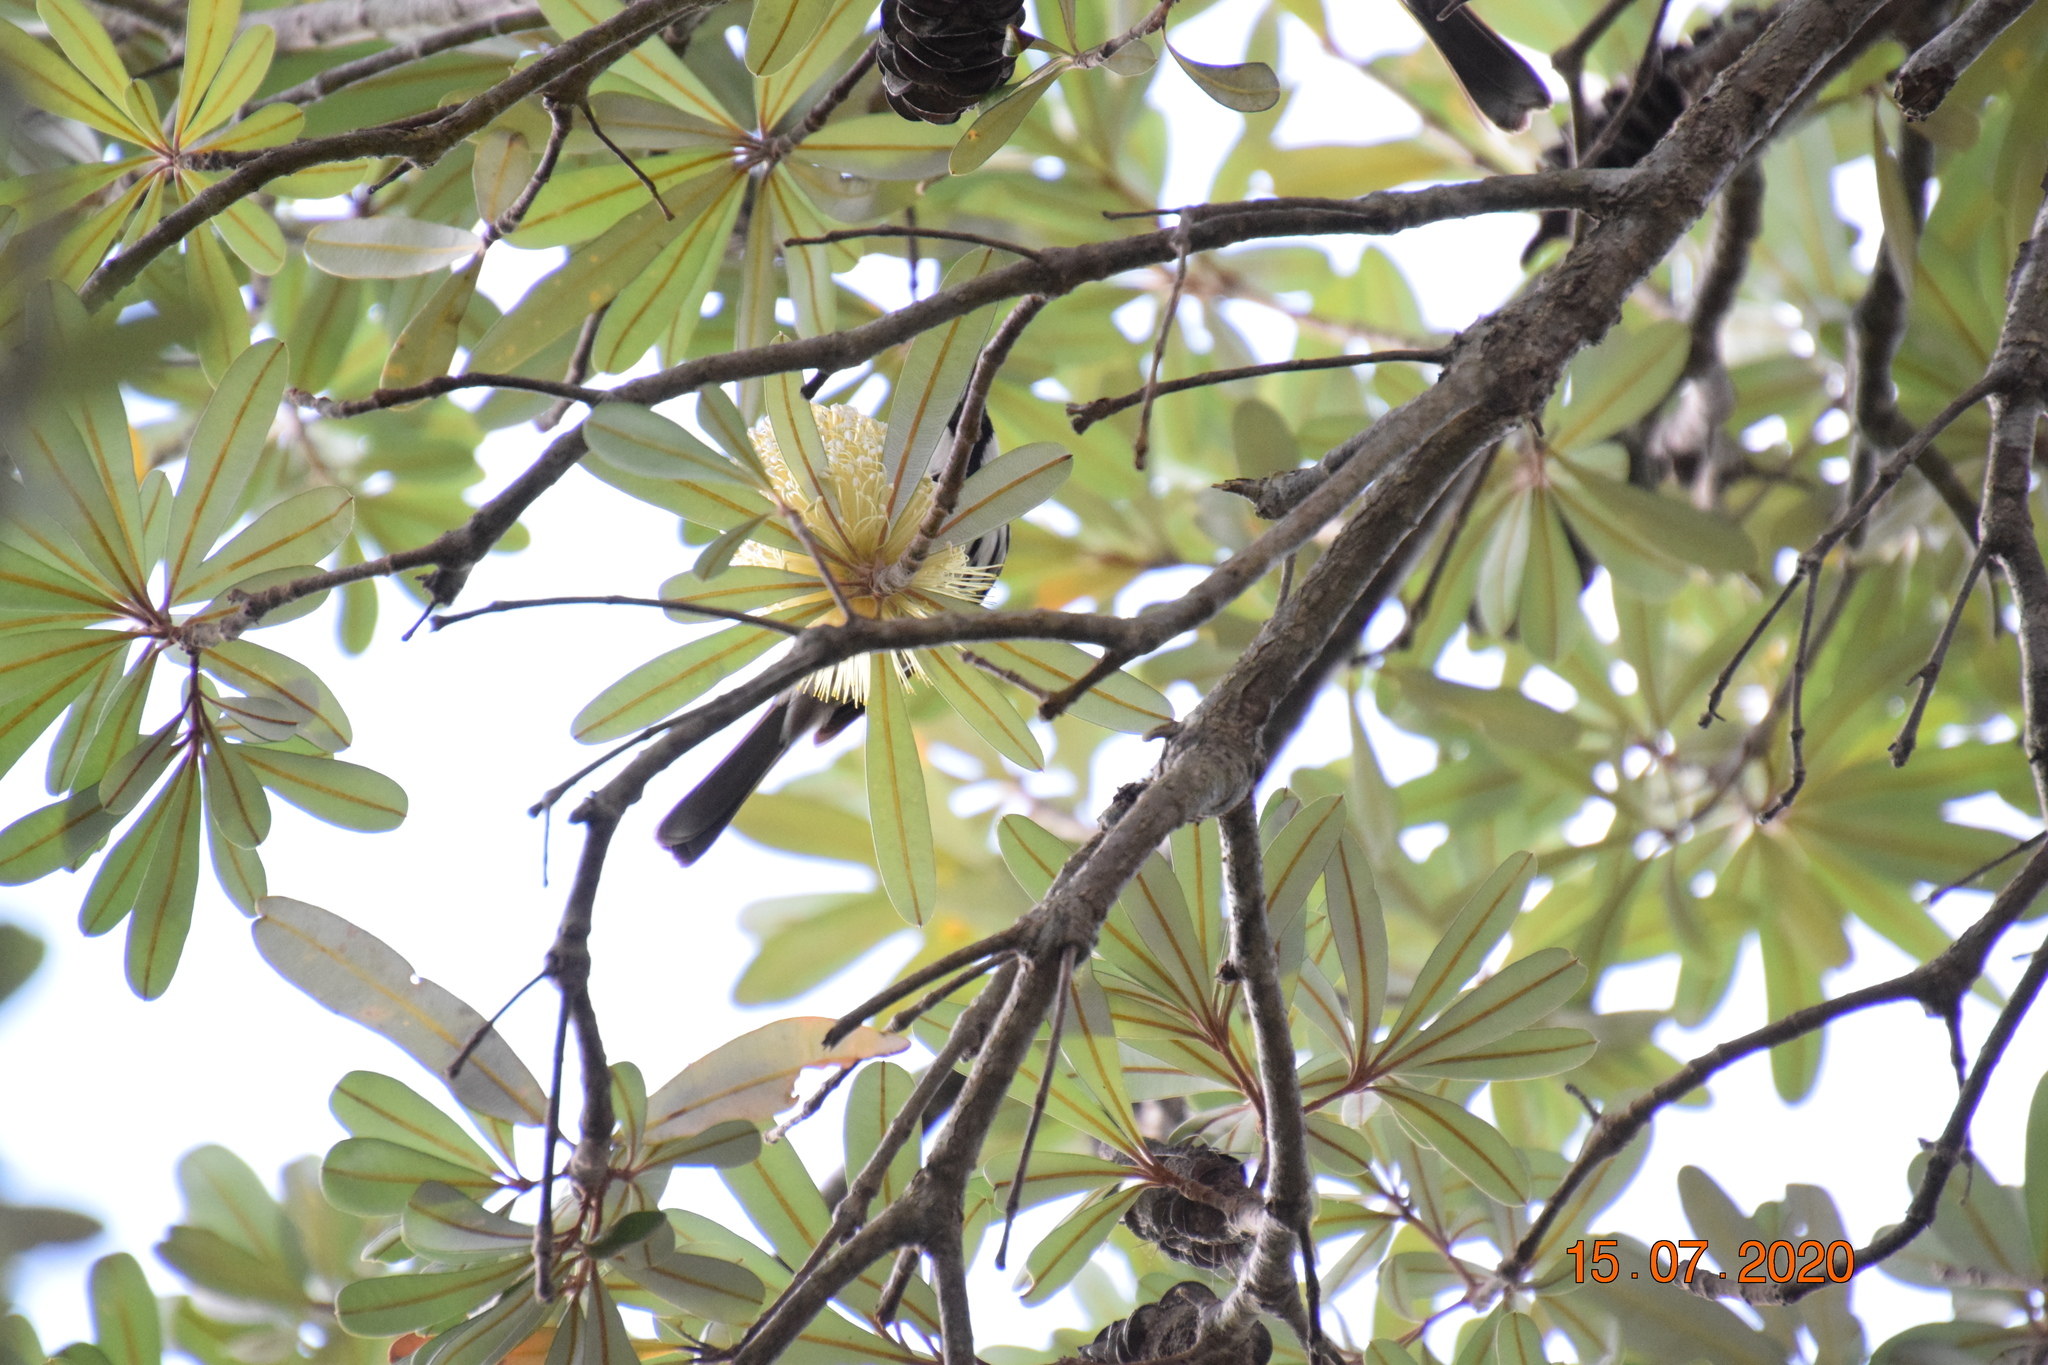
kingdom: Animalia
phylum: Chordata
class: Aves
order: Passeriformes
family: Meliphagidae
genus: Phylidonyris
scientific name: Phylidonyris niger
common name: White-cheeked honeyeater
